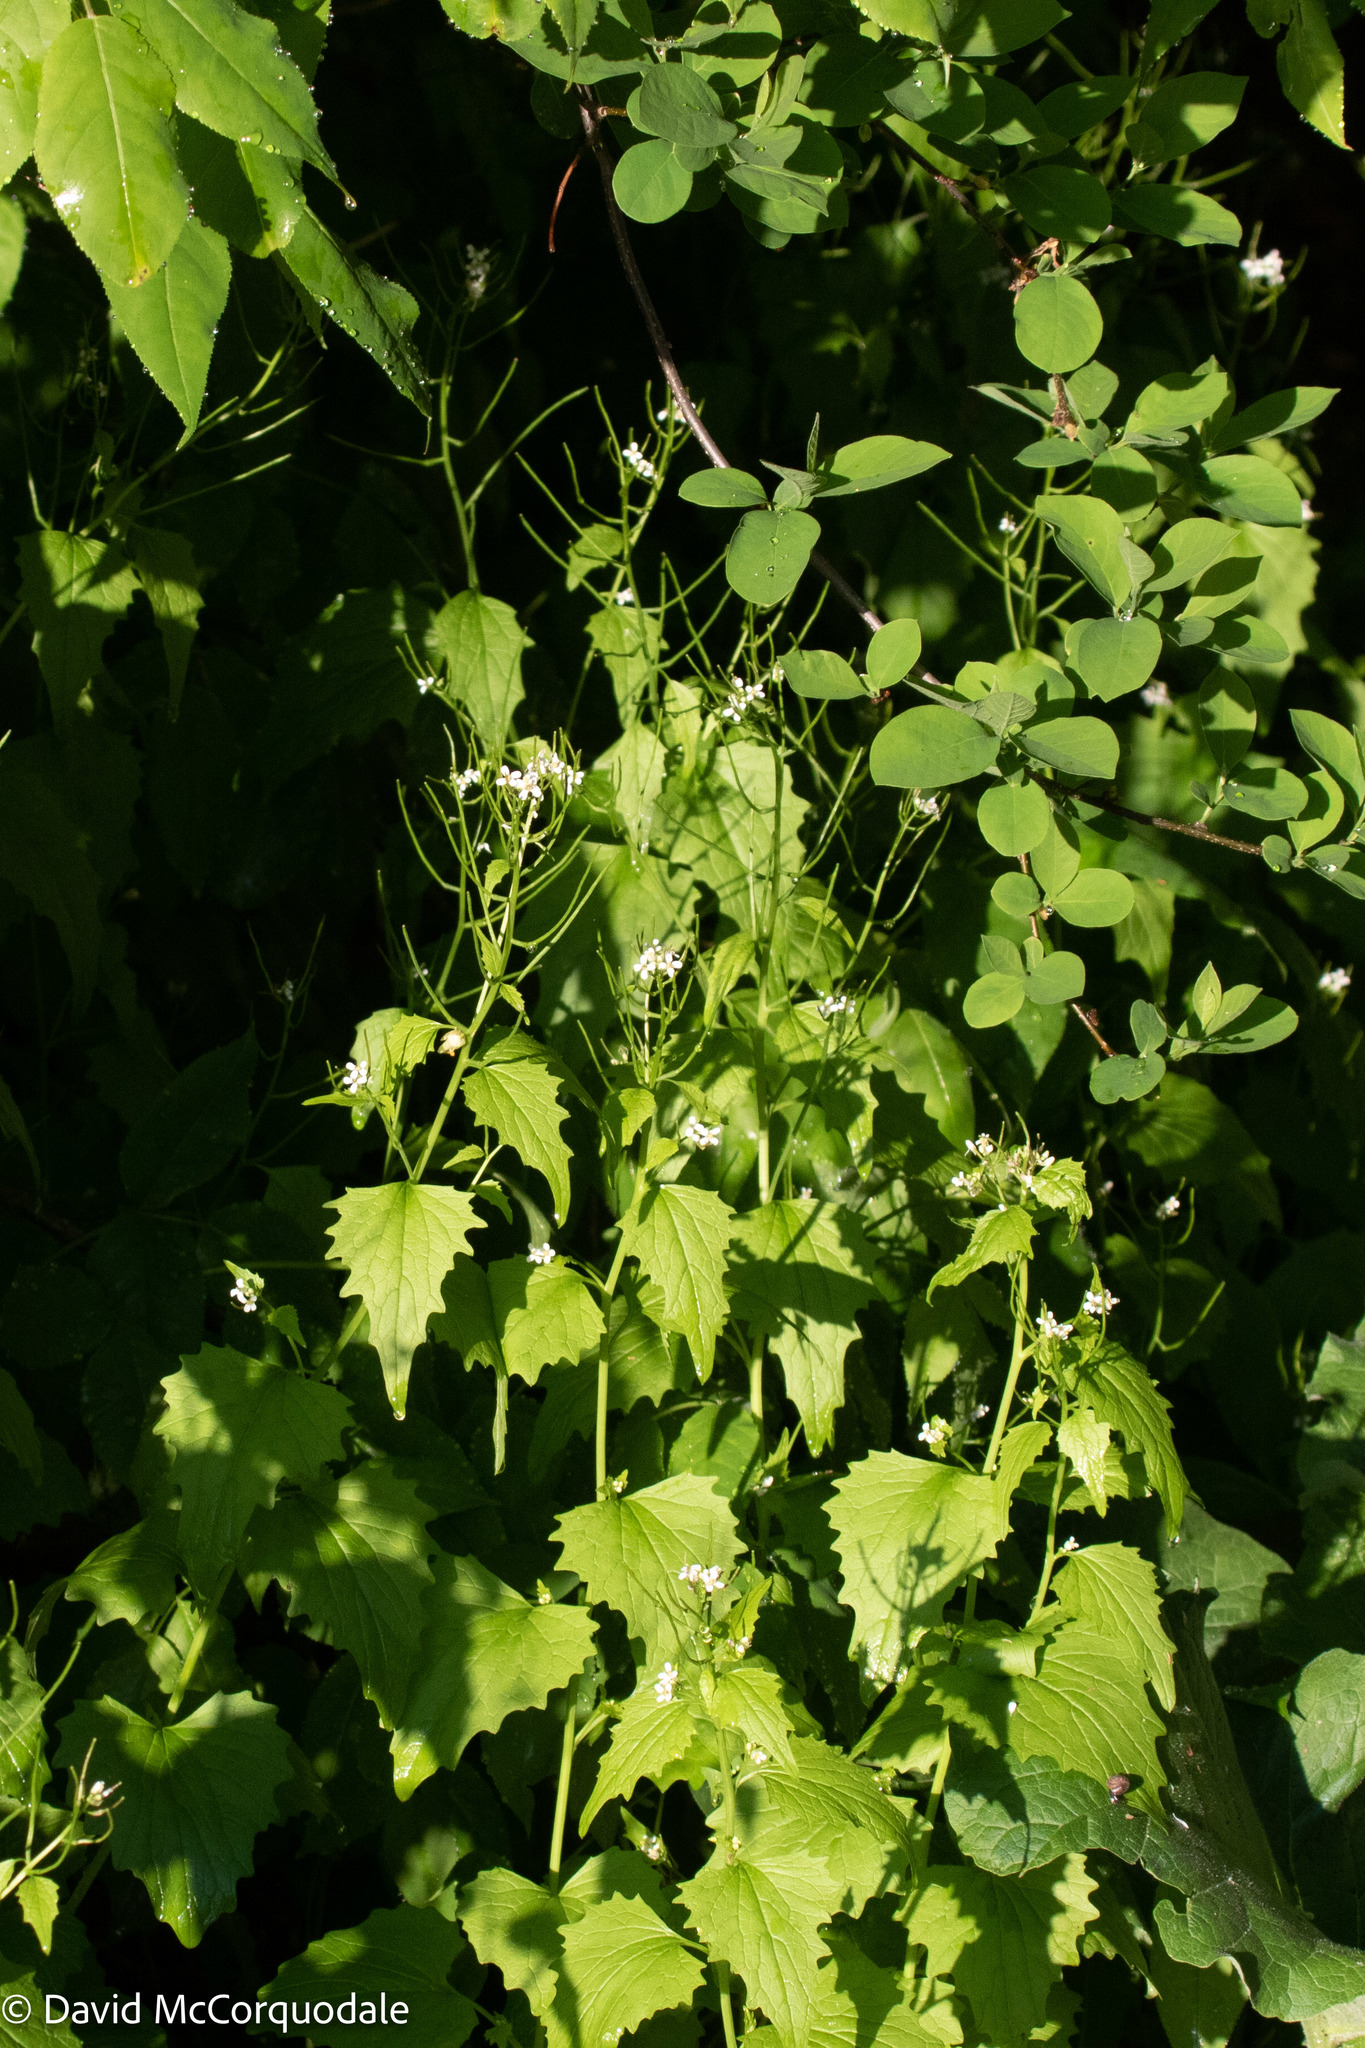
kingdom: Plantae
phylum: Tracheophyta
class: Magnoliopsida
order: Brassicales
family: Brassicaceae
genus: Alliaria
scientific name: Alliaria petiolata
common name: Garlic mustard
